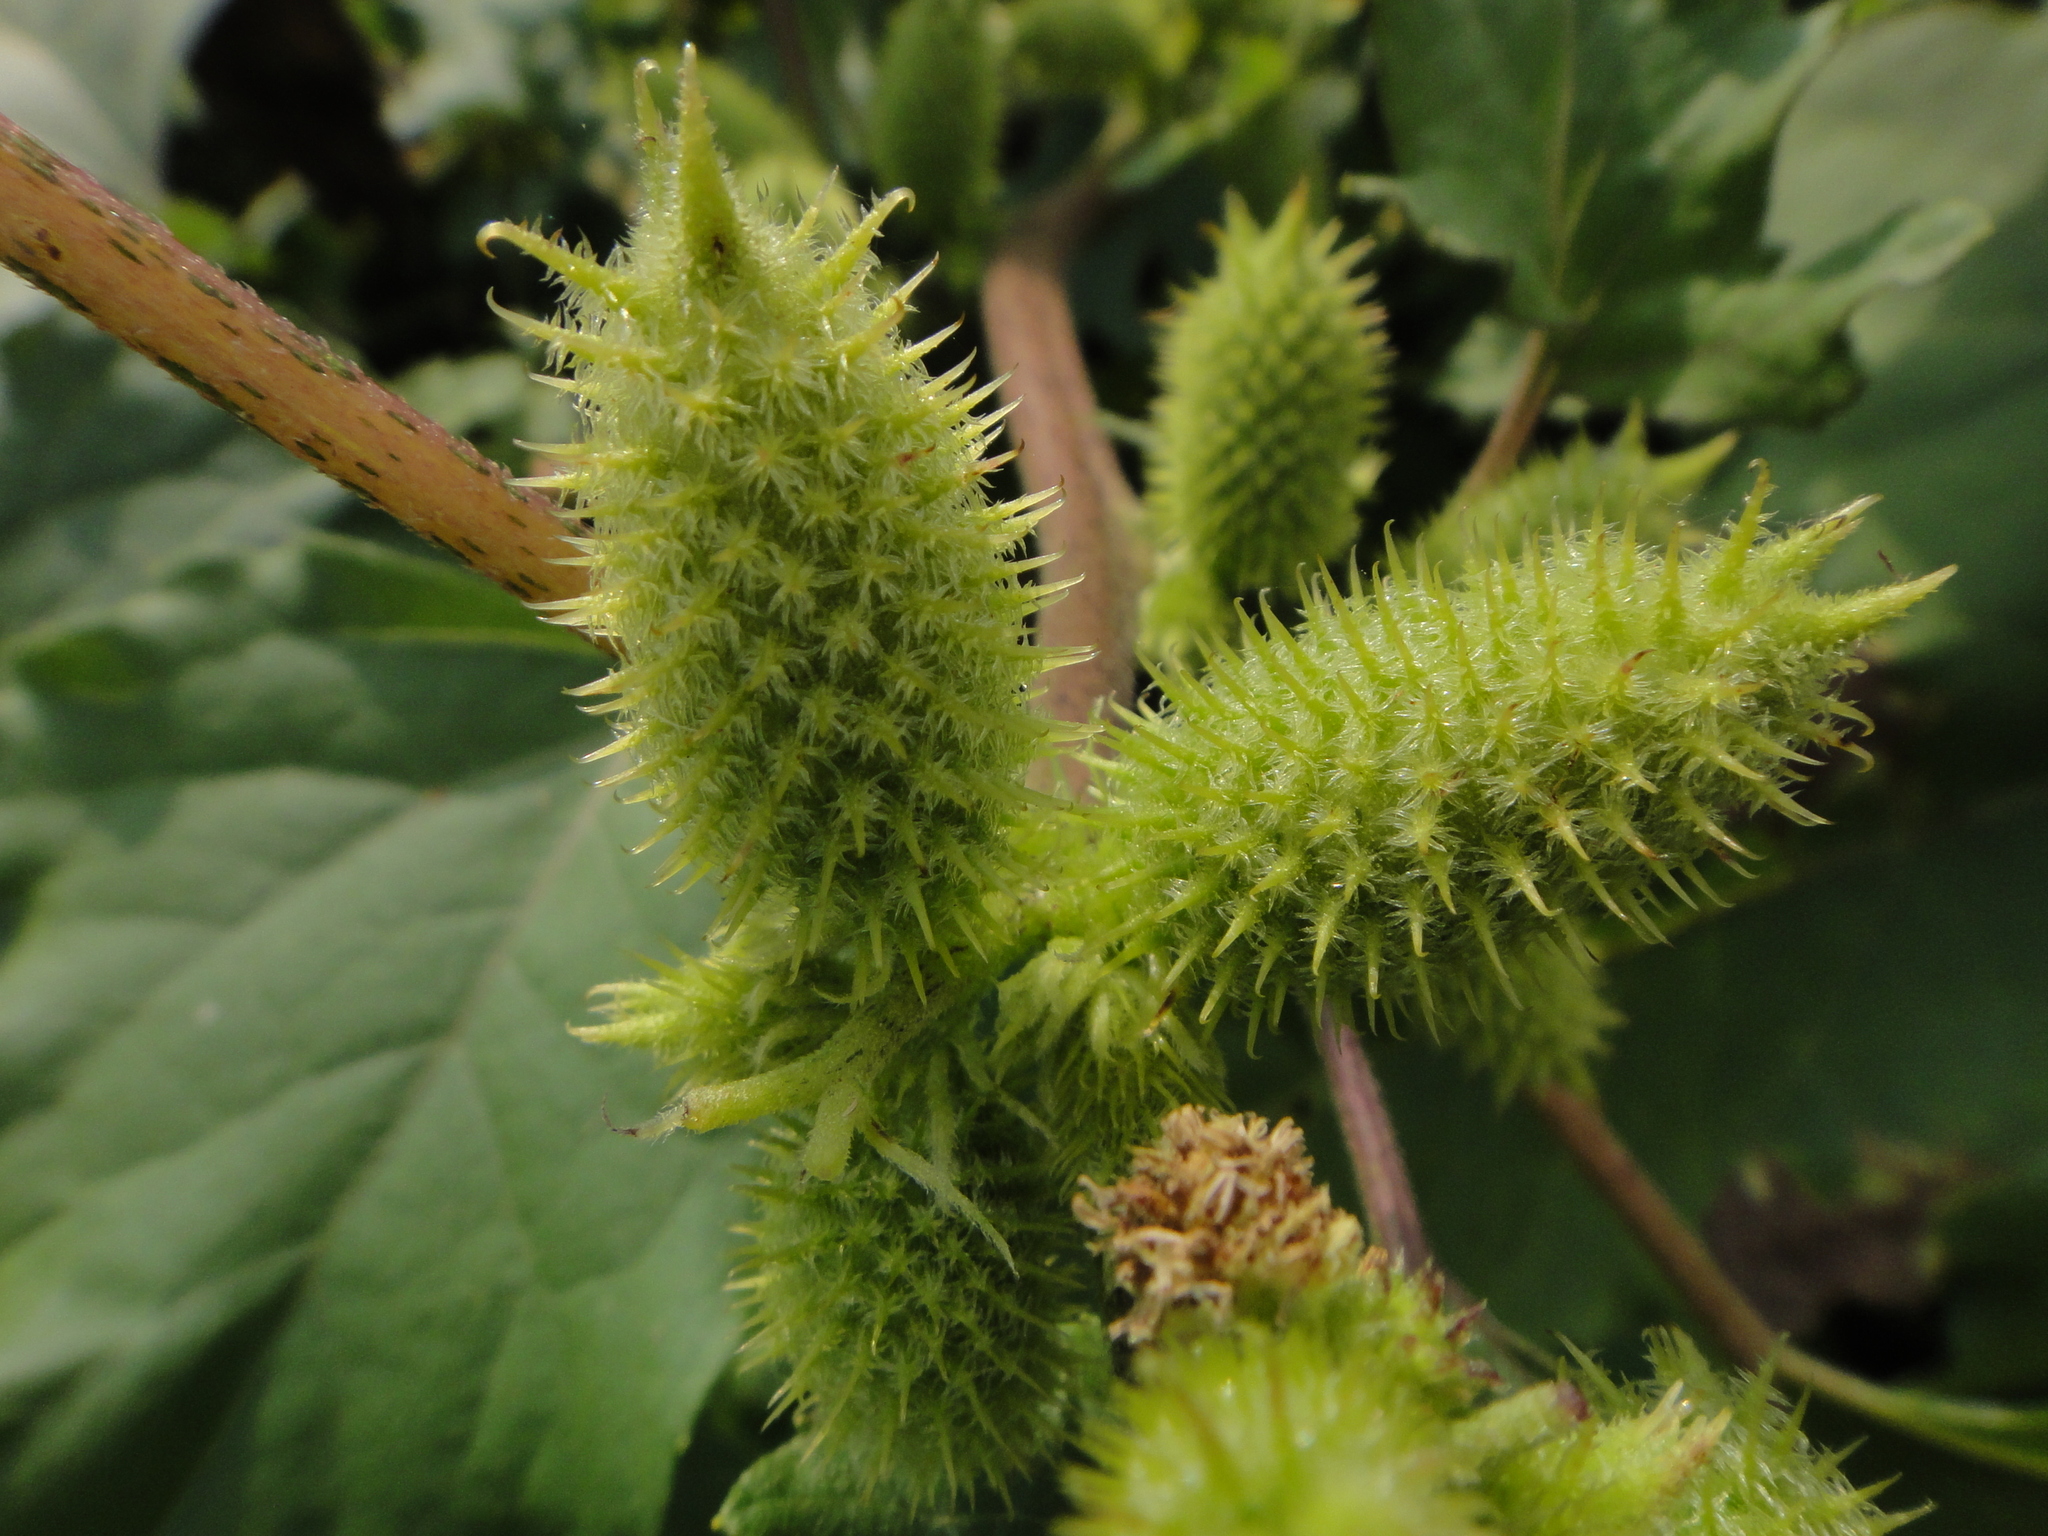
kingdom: Plantae
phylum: Tracheophyta
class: Magnoliopsida
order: Asterales
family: Asteraceae
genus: Xanthium
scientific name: Xanthium strumarium
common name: Rough cocklebur
